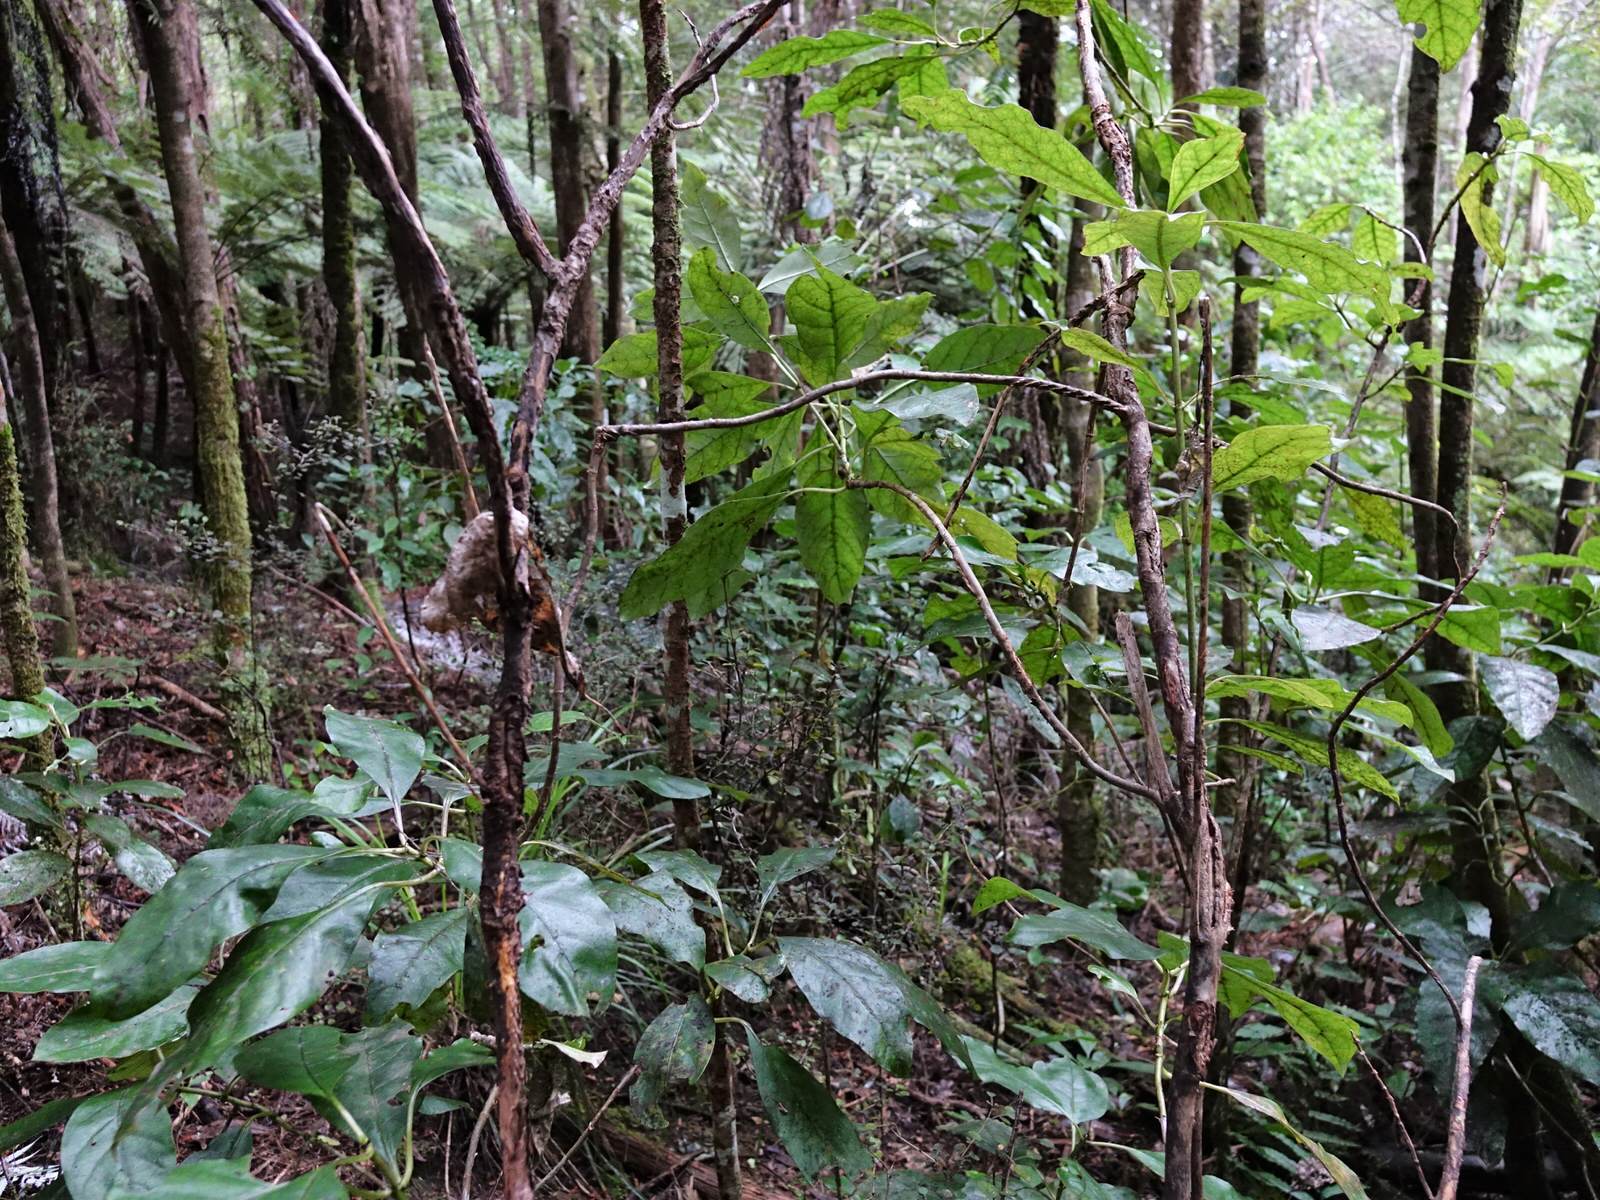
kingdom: Plantae
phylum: Tracheophyta
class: Magnoliopsida
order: Gentianales
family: Rubiaceae
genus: Coprosma
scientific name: Coprosma autumnalis
